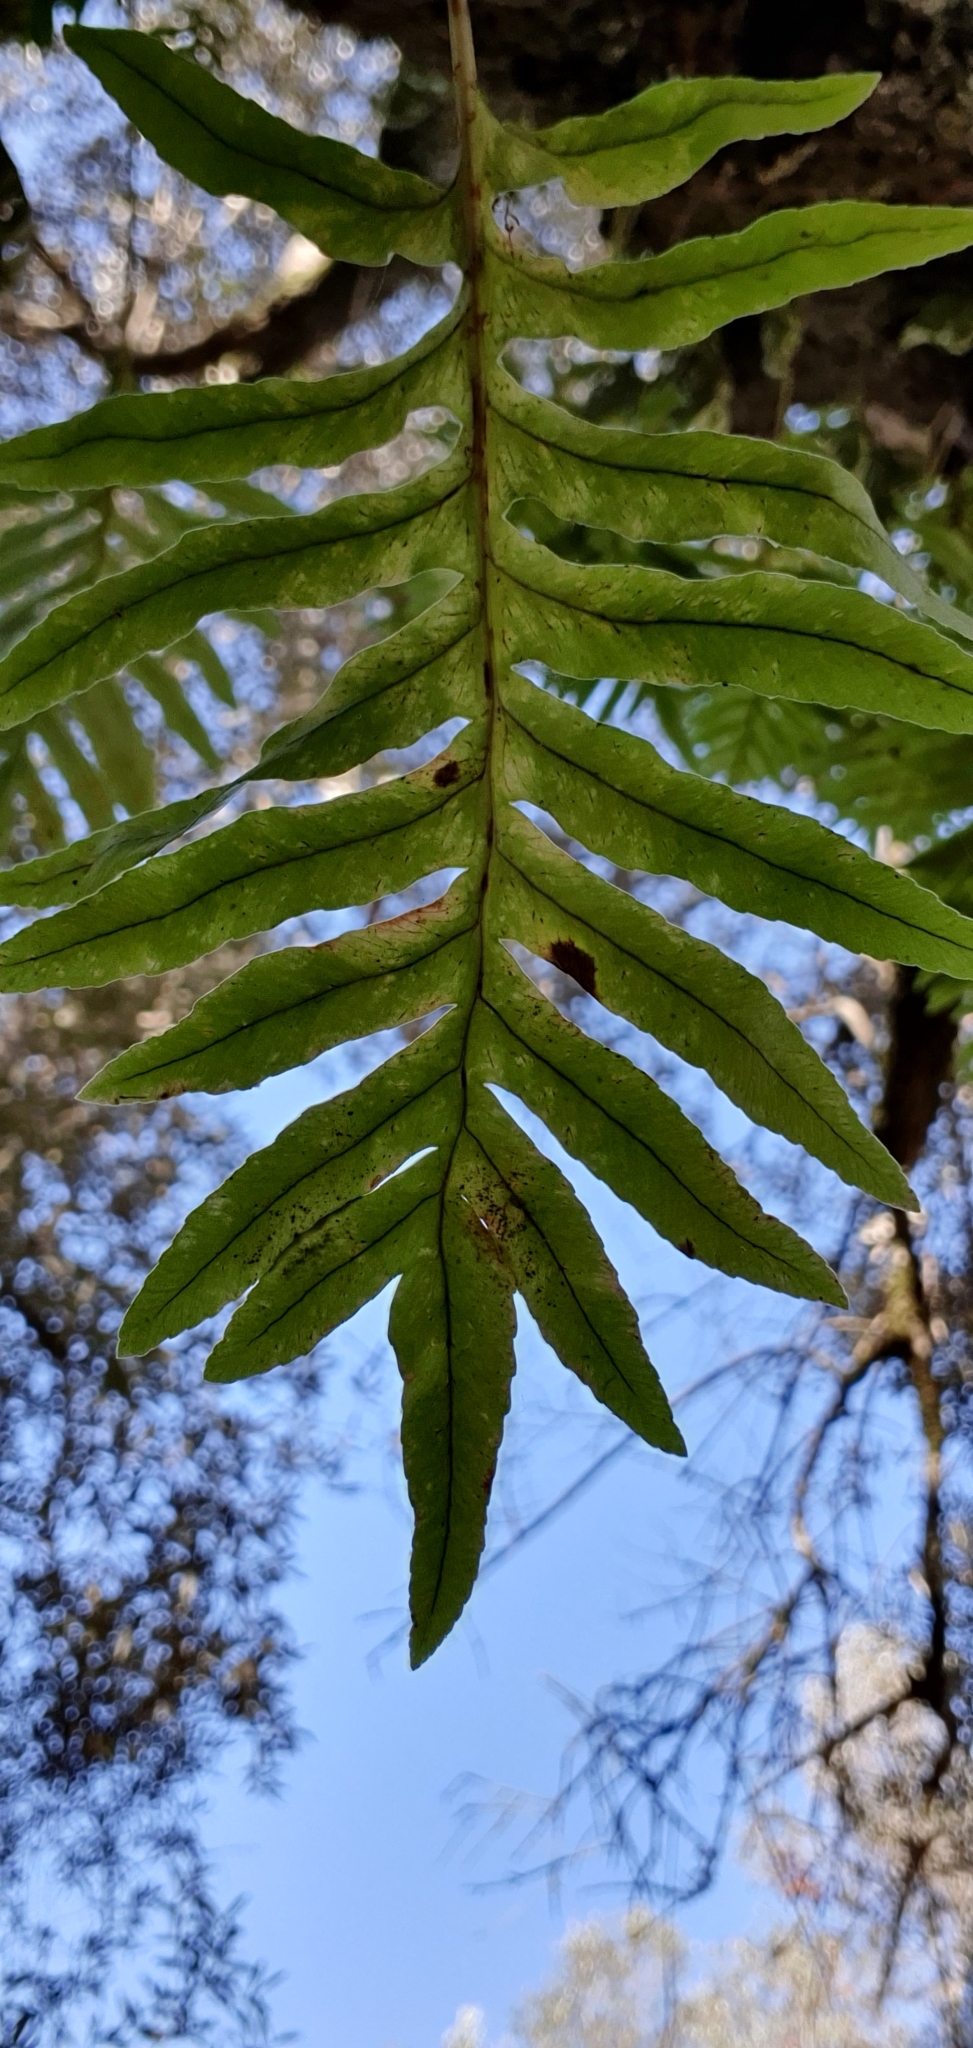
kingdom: Plantae
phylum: Tracheophyta
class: Polypodiopsida
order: Polypodiales
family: Polypodiaceae
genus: Polypodium
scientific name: Polypodium cambricum
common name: Southern polypody
